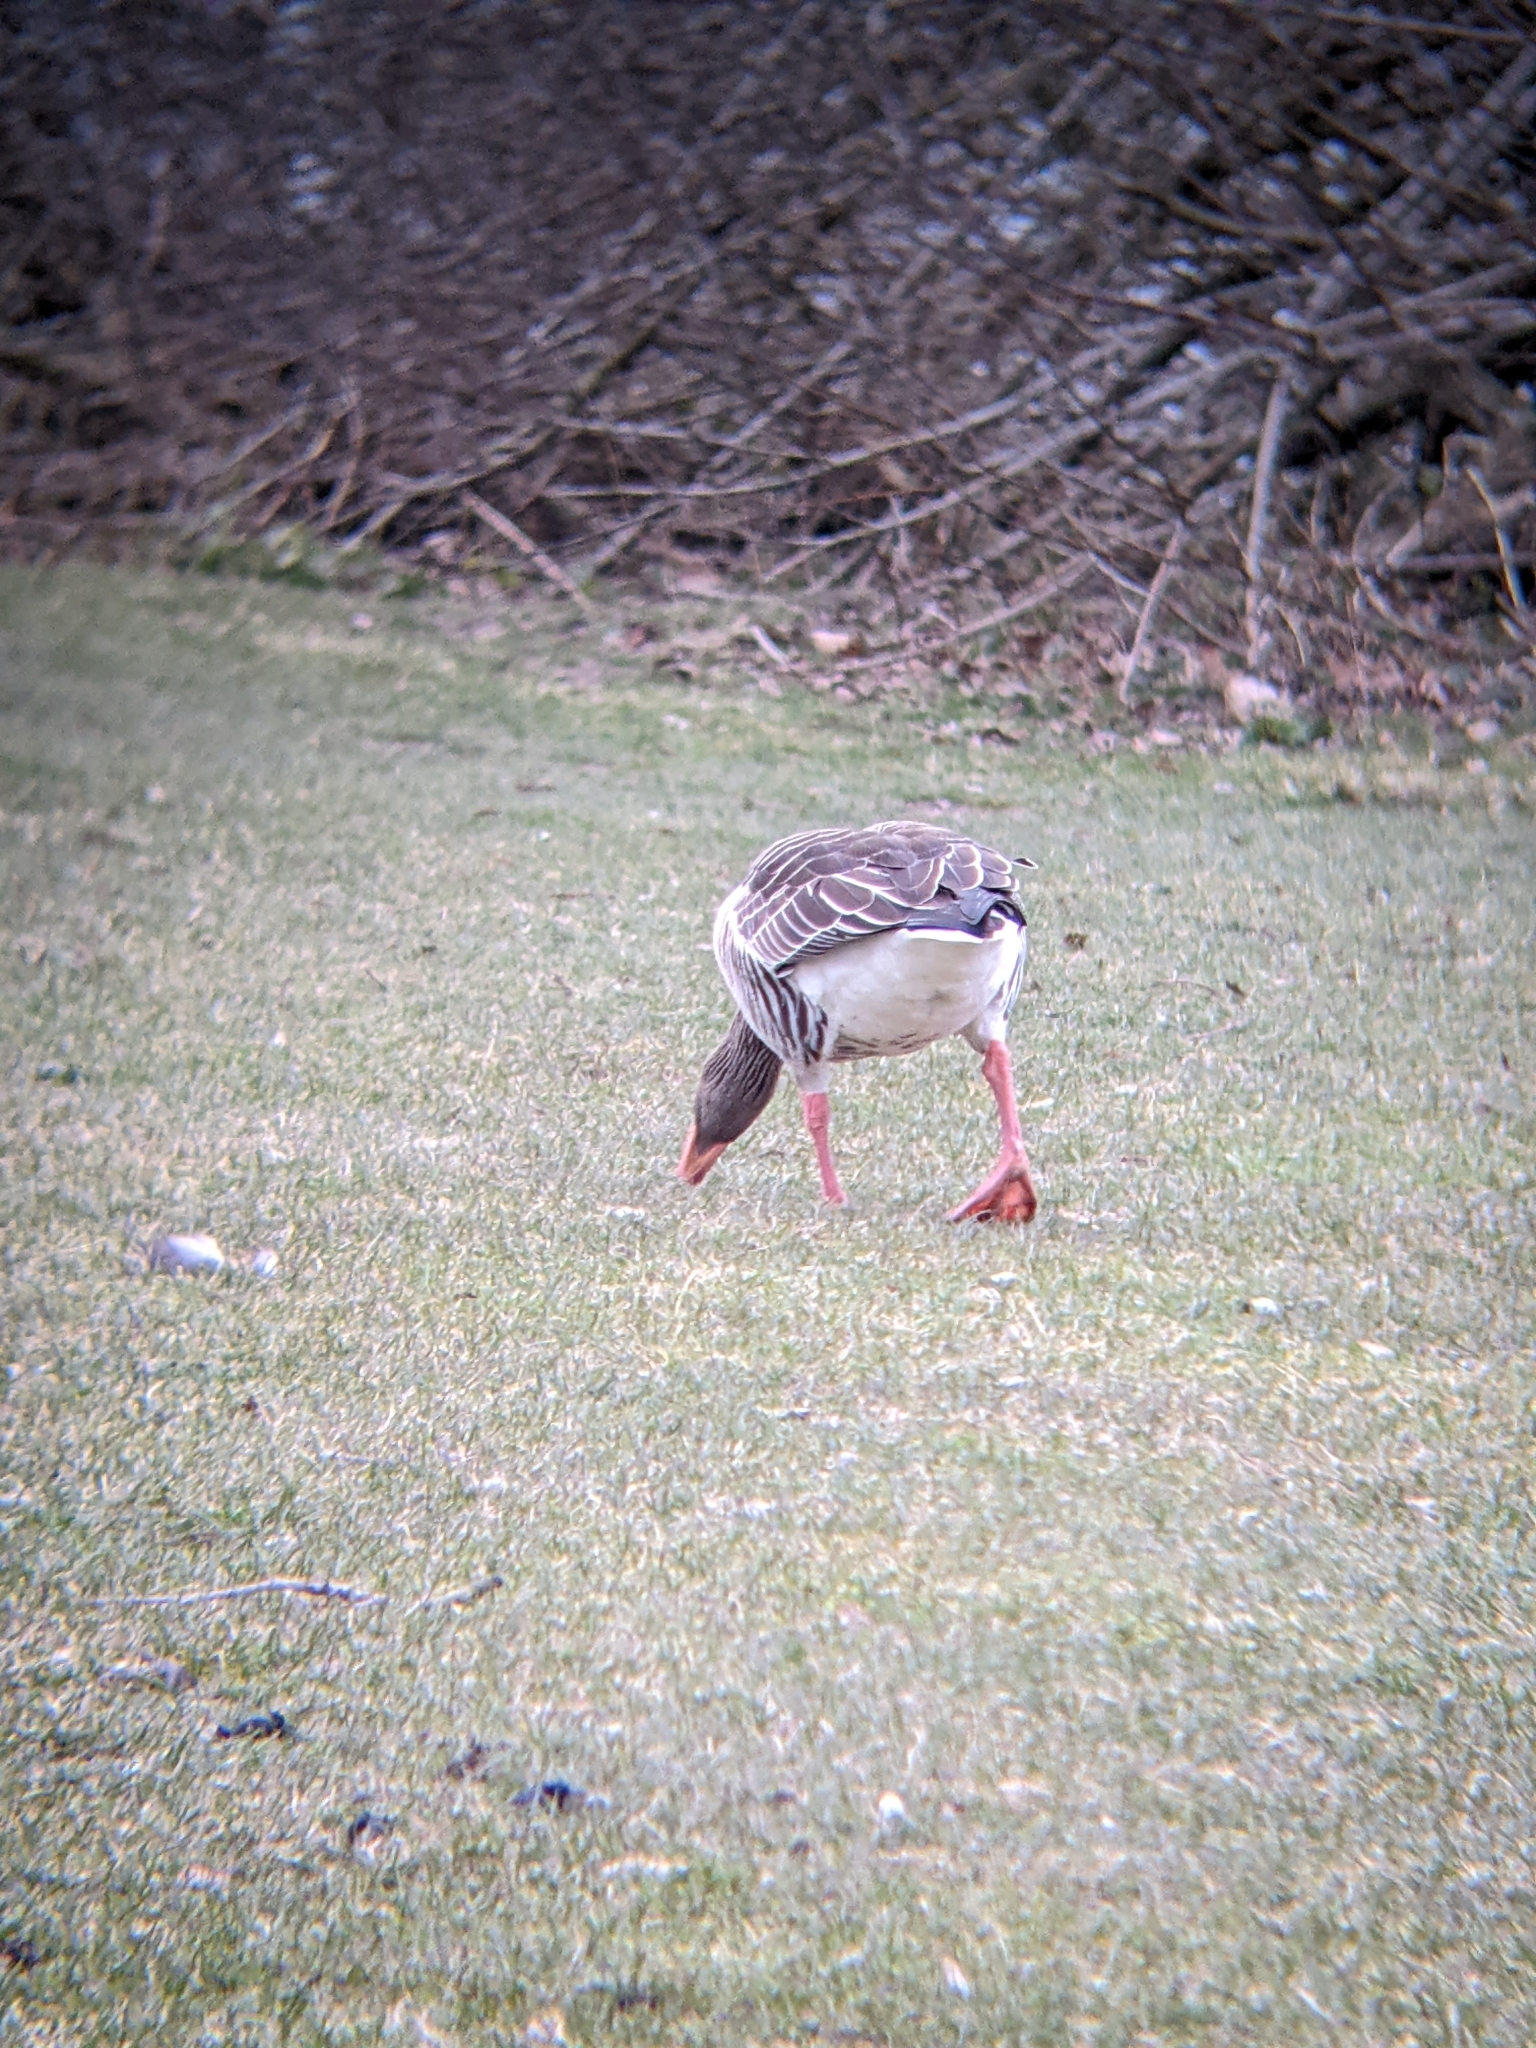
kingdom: Animalia
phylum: Chordata
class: Aves
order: Anseriformes
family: Anatidae
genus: Anser
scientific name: Anser anser
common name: Greylag goose
